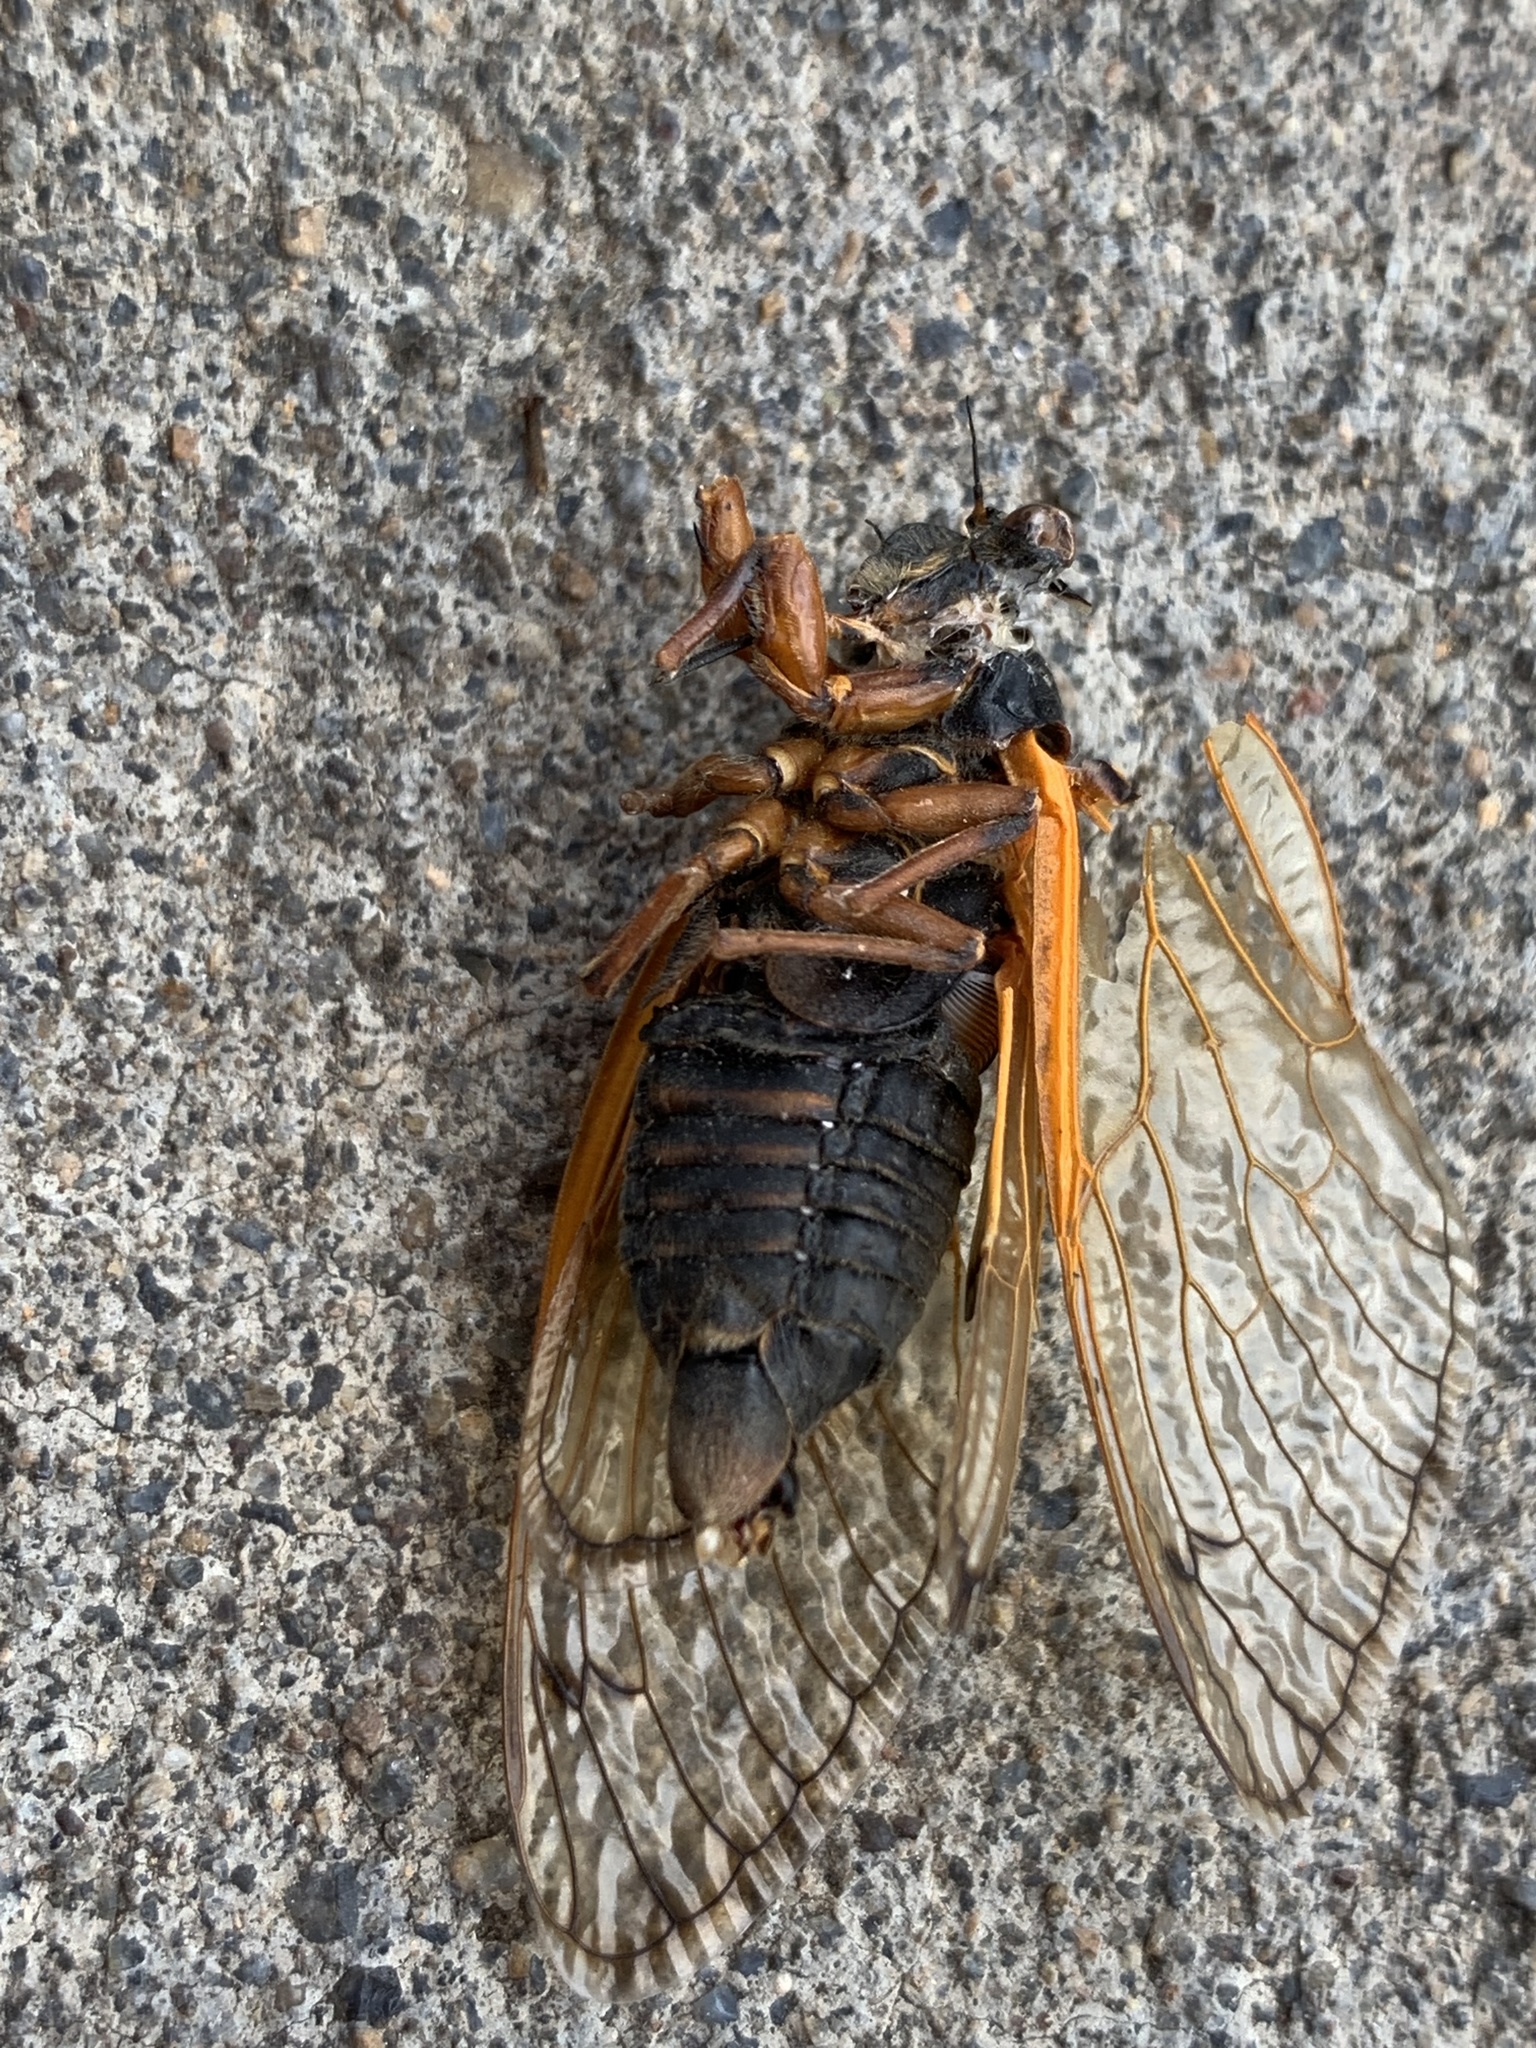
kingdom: Animalia
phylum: Arthropoda
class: Insecta
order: Hemiptera
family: Cicadidae
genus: Magicicada
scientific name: Magicicada septendecula
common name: Decula periodical cicada
